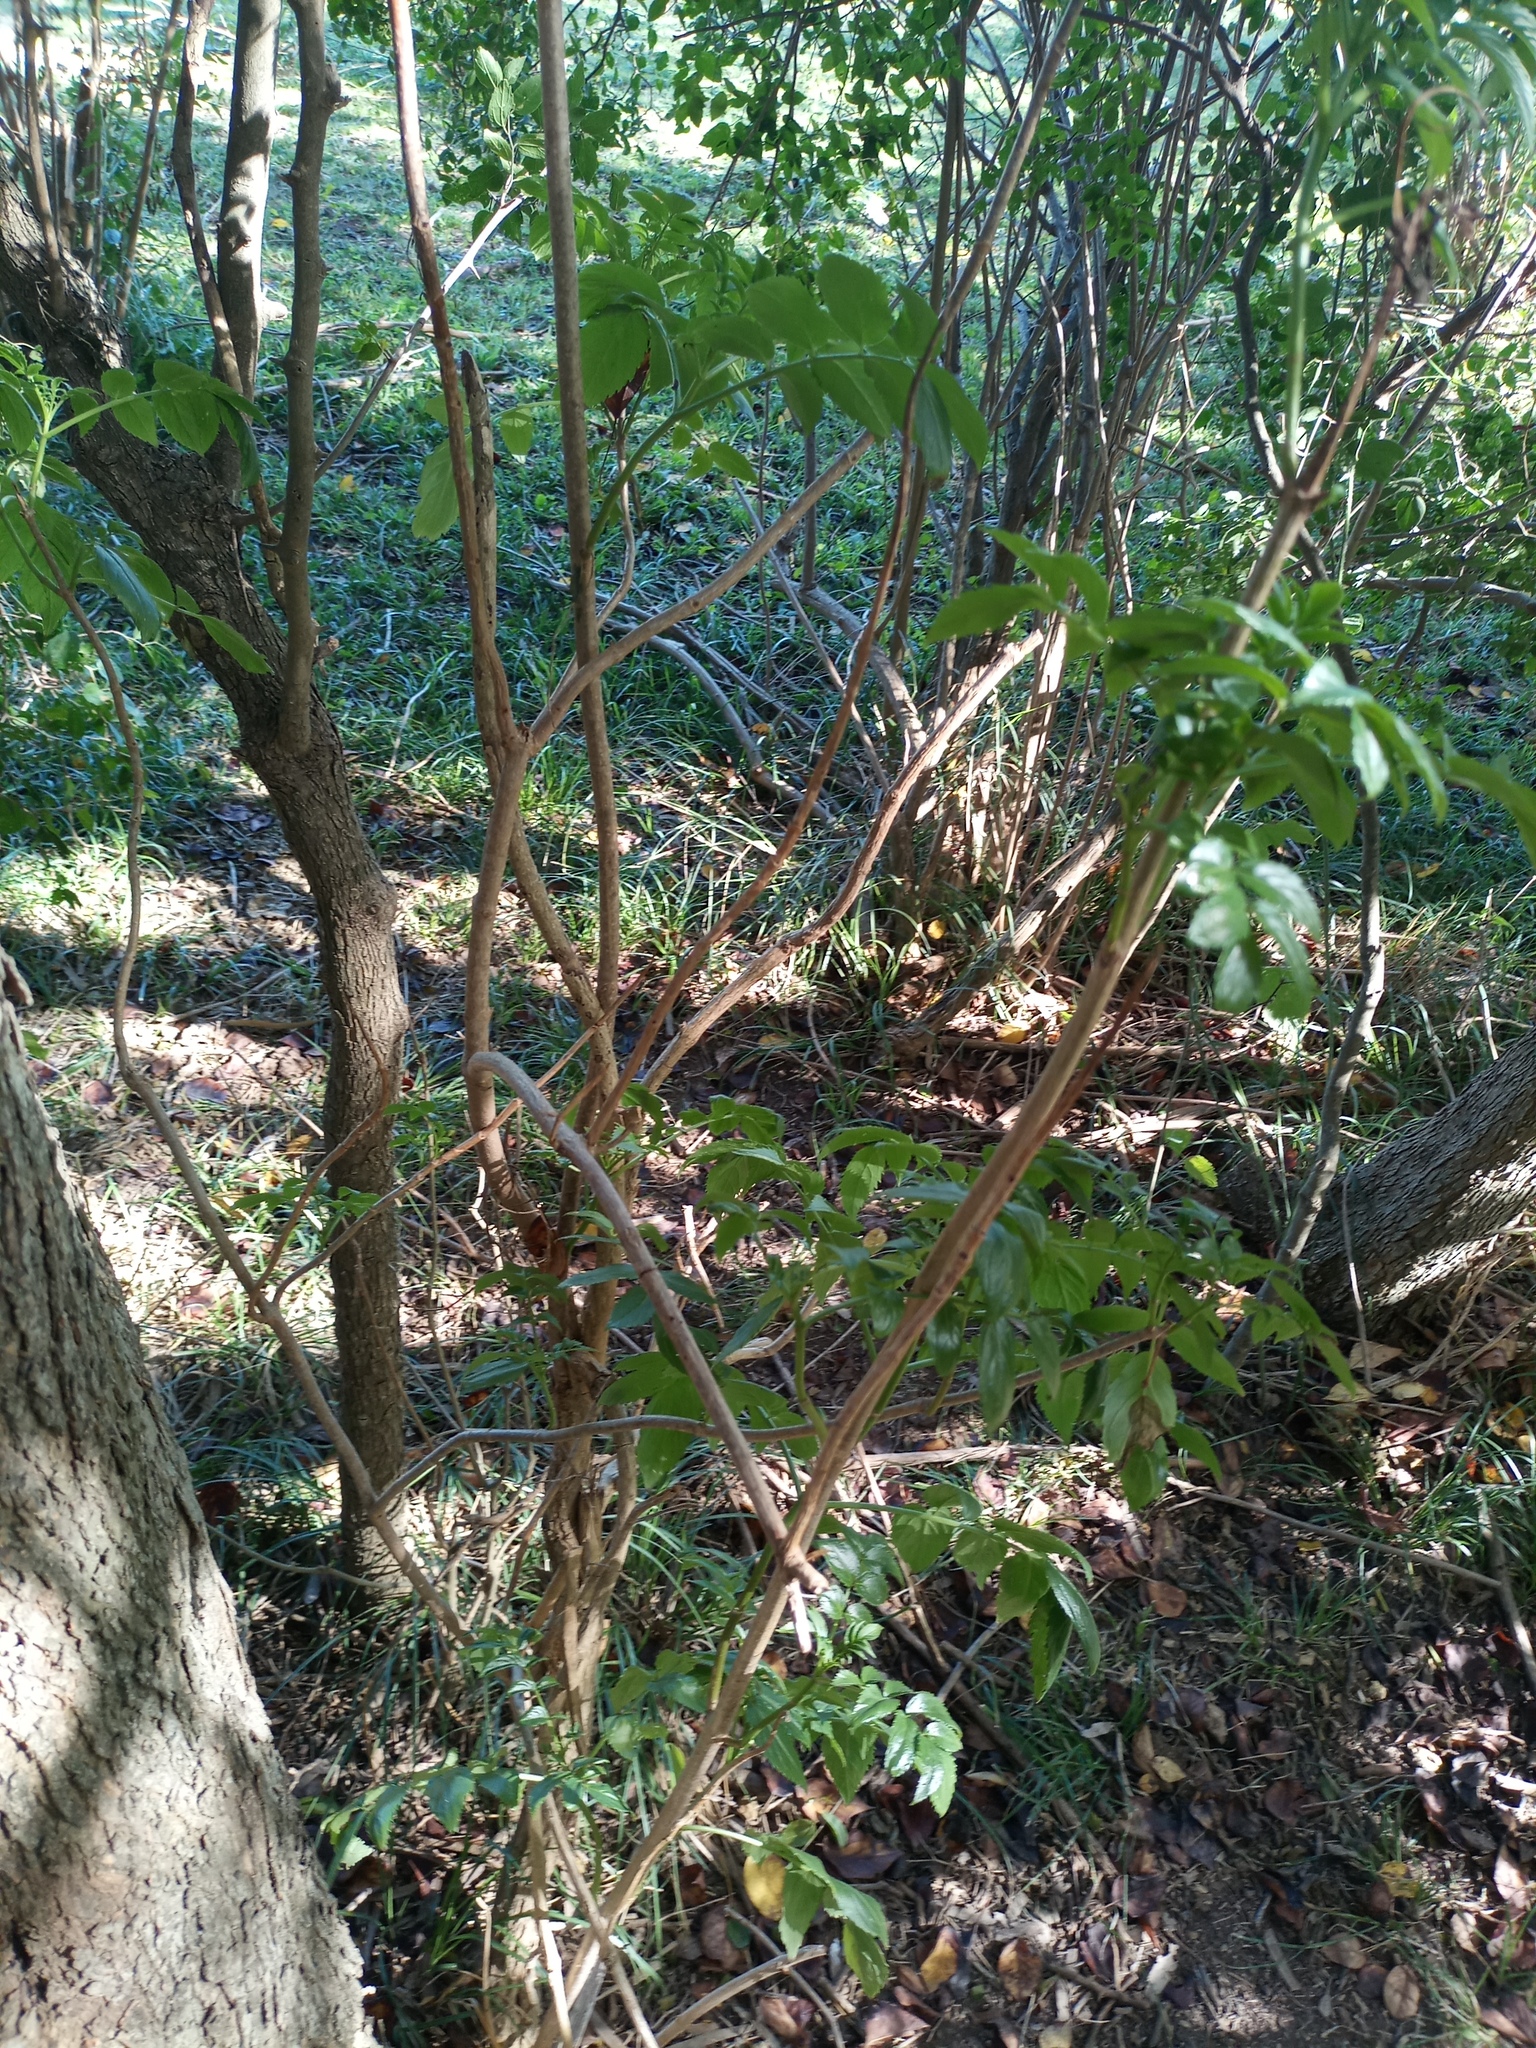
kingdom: Plantae
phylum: Tracheophyta
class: Magnoliopsida
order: Dipsacales
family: Viburnaceae
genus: Sambucus
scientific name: Sambucus australis
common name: Southern elder
